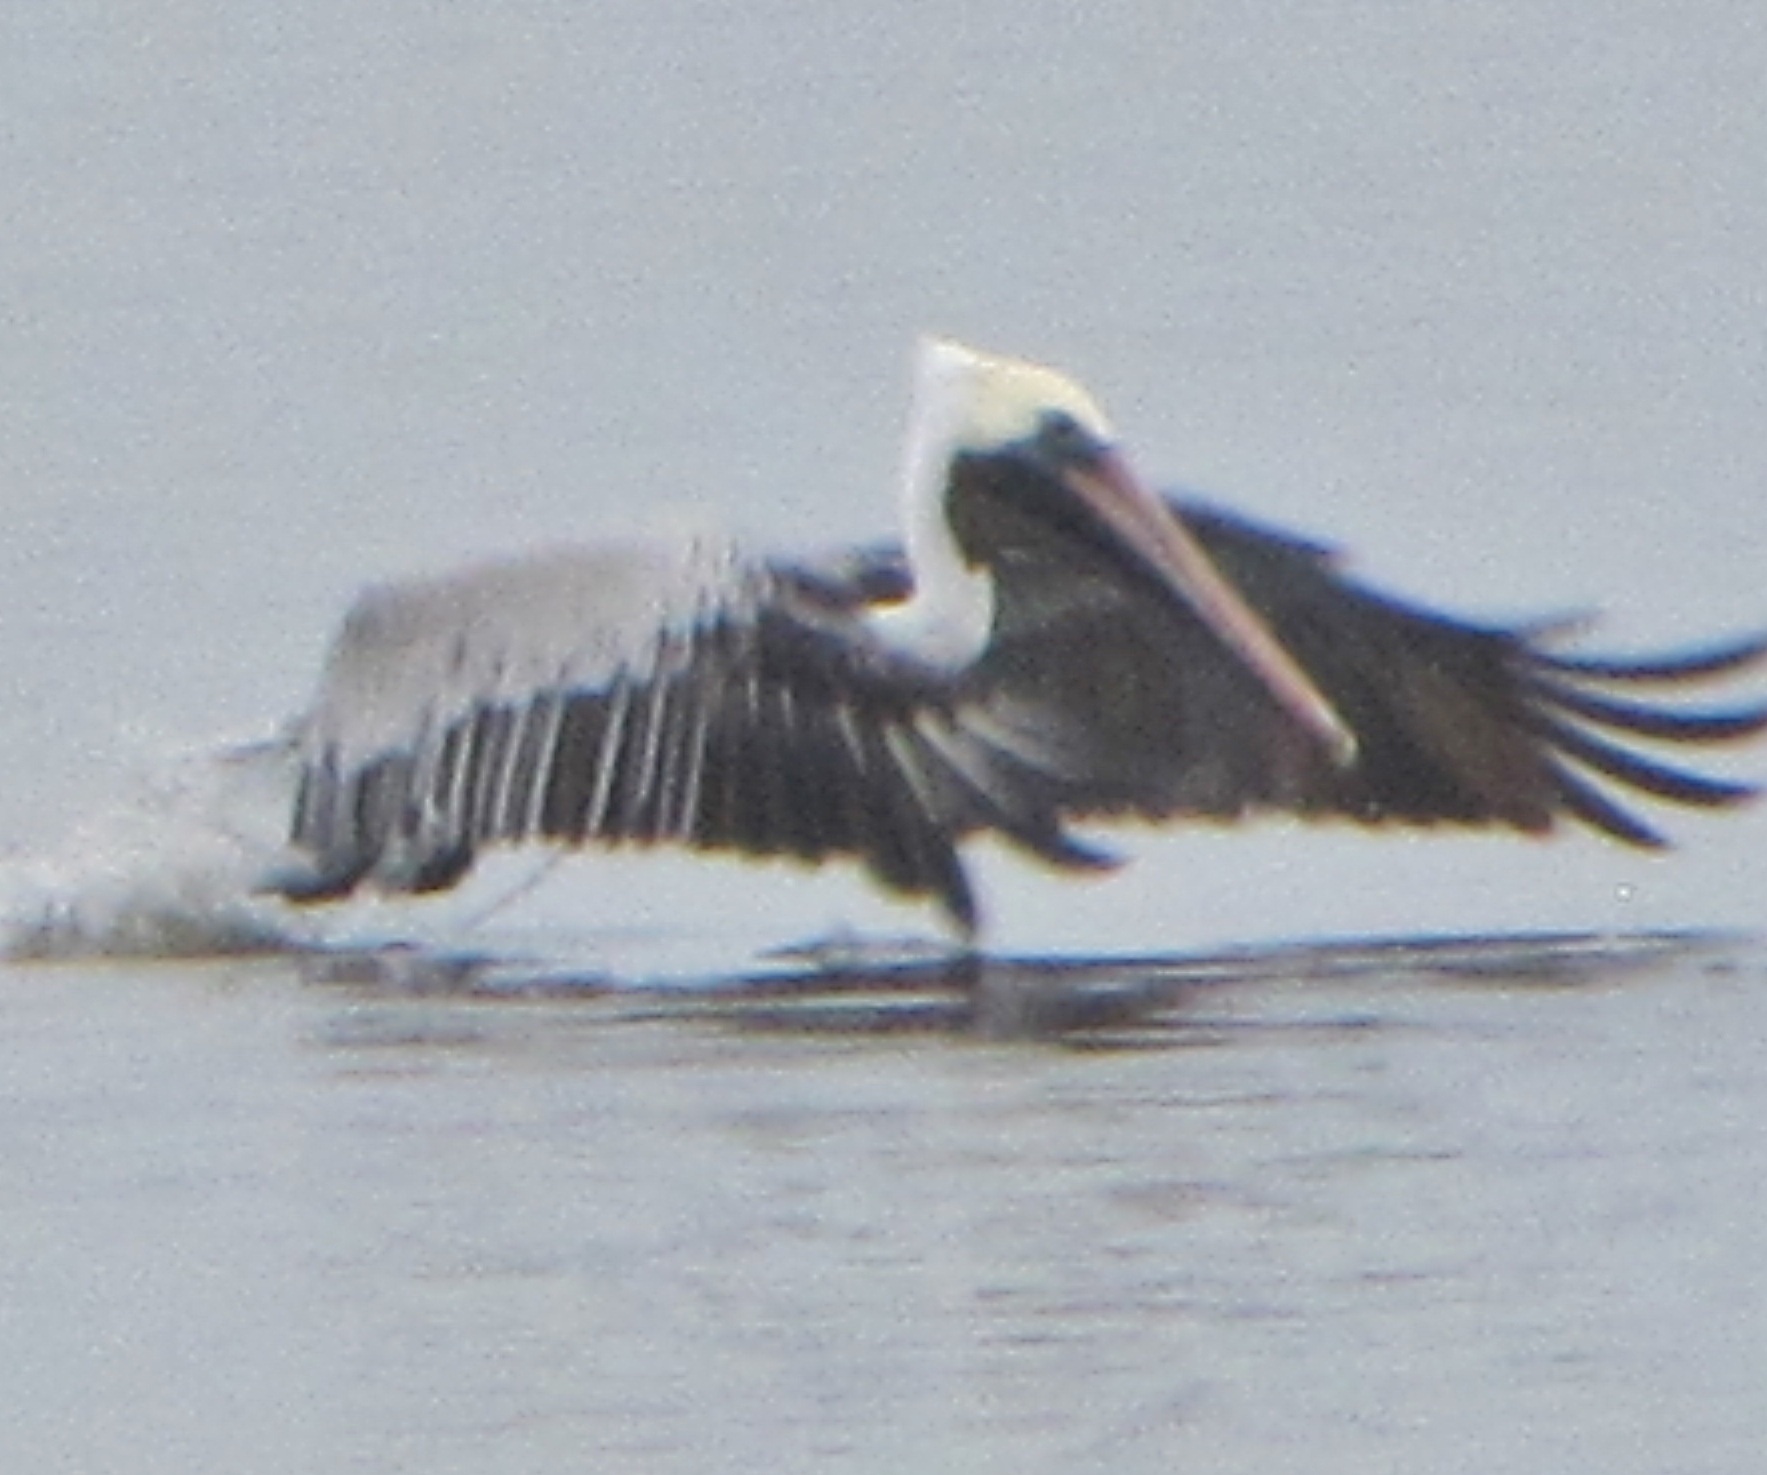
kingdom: Animalia
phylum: Chordata
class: Aves
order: Pelecaniformes
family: Pelecanidae
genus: Pelecanus
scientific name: Pelecanus occidentalis
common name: Brown pelican
